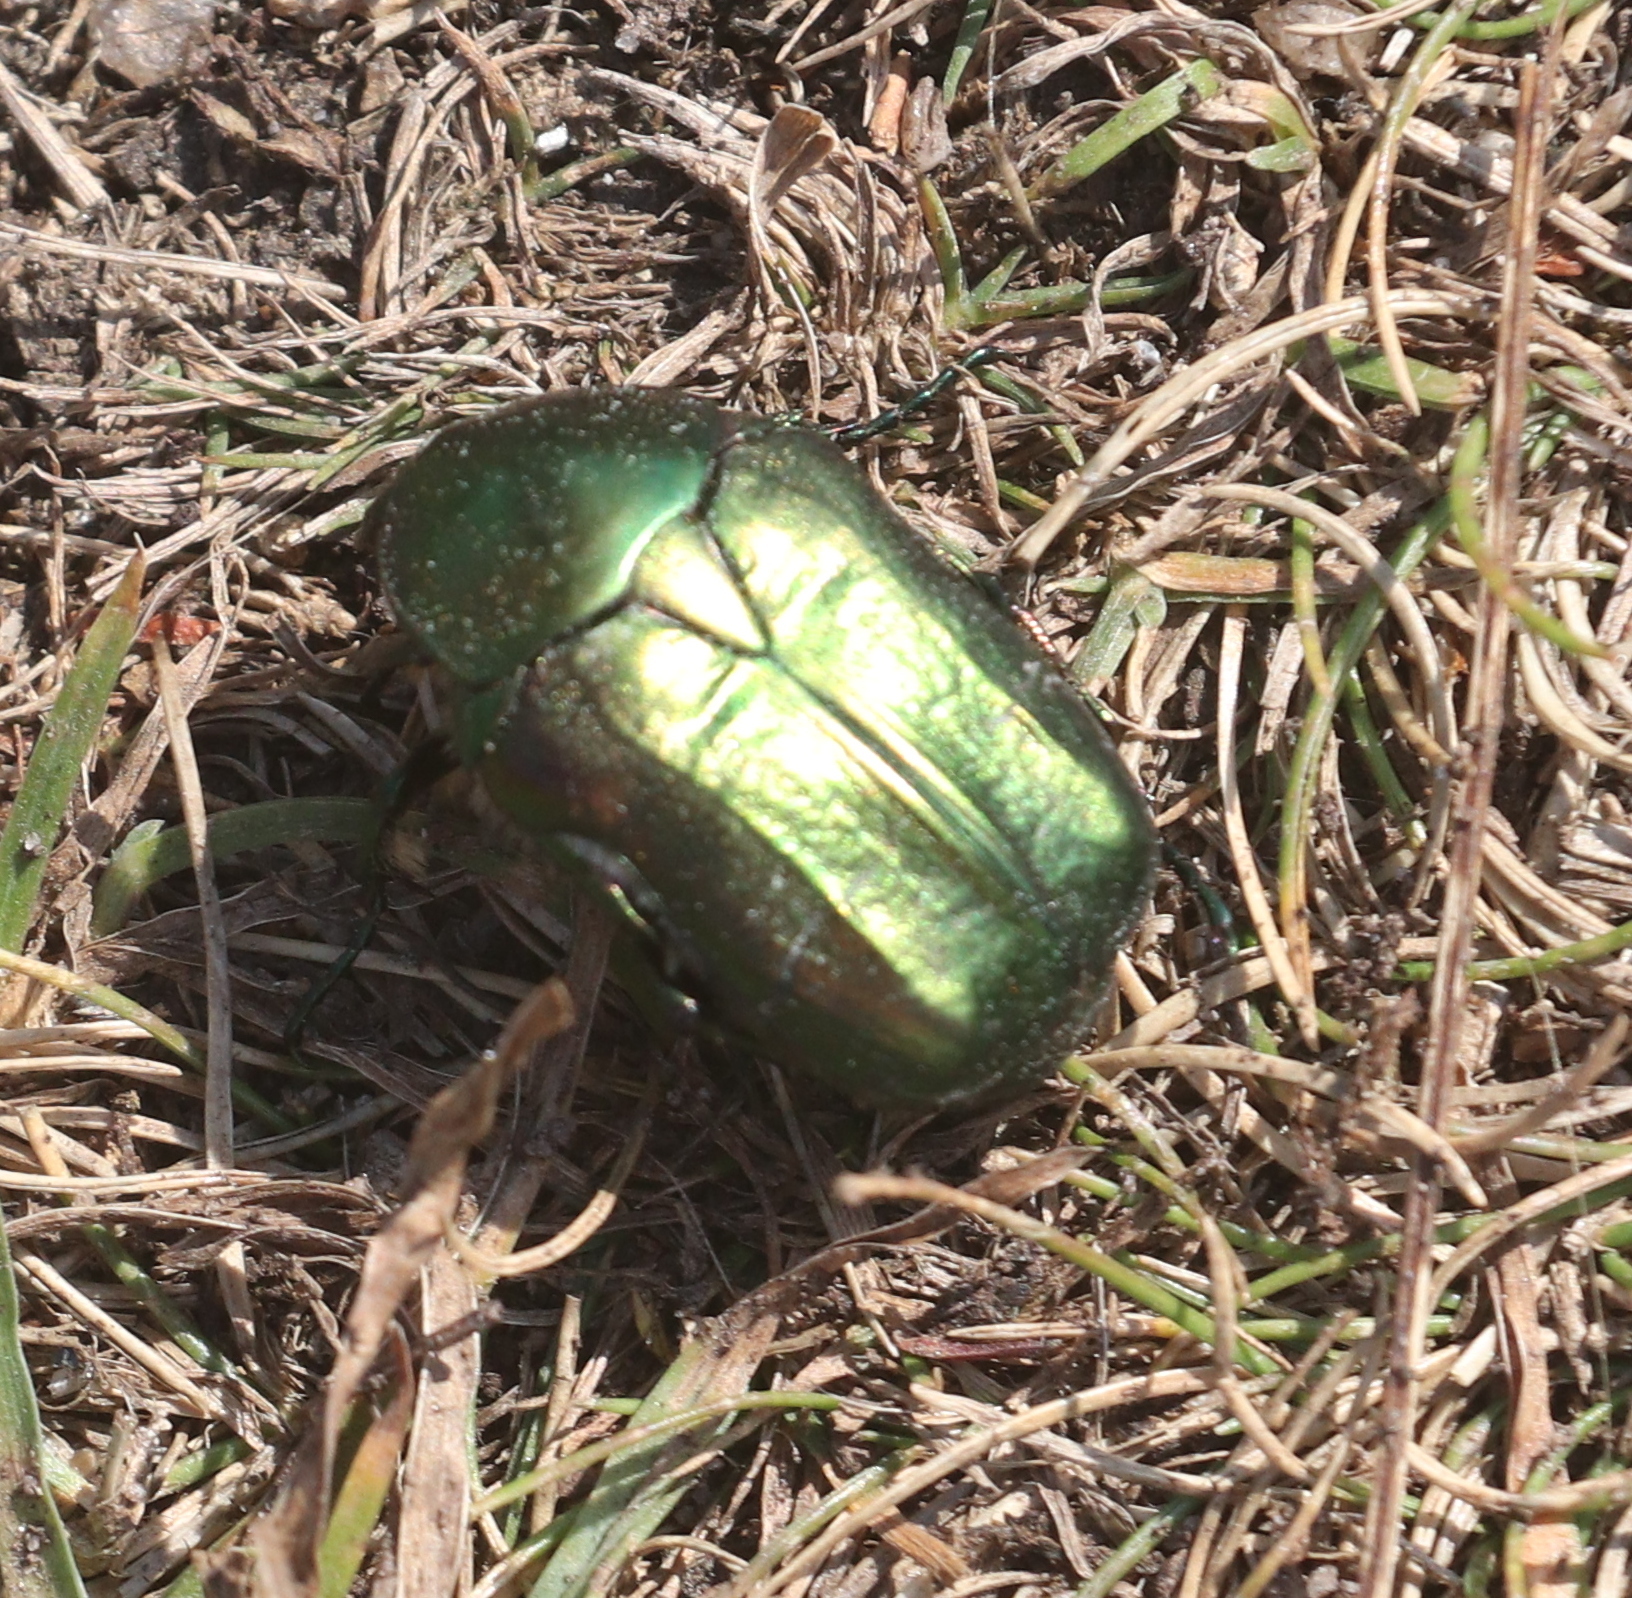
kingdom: Animalia
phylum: Arthropoda
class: Insecta
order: Coleoptera
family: Scarabaeidae
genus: Cetonia
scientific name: Cetonia aurata
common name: Rose chafer
